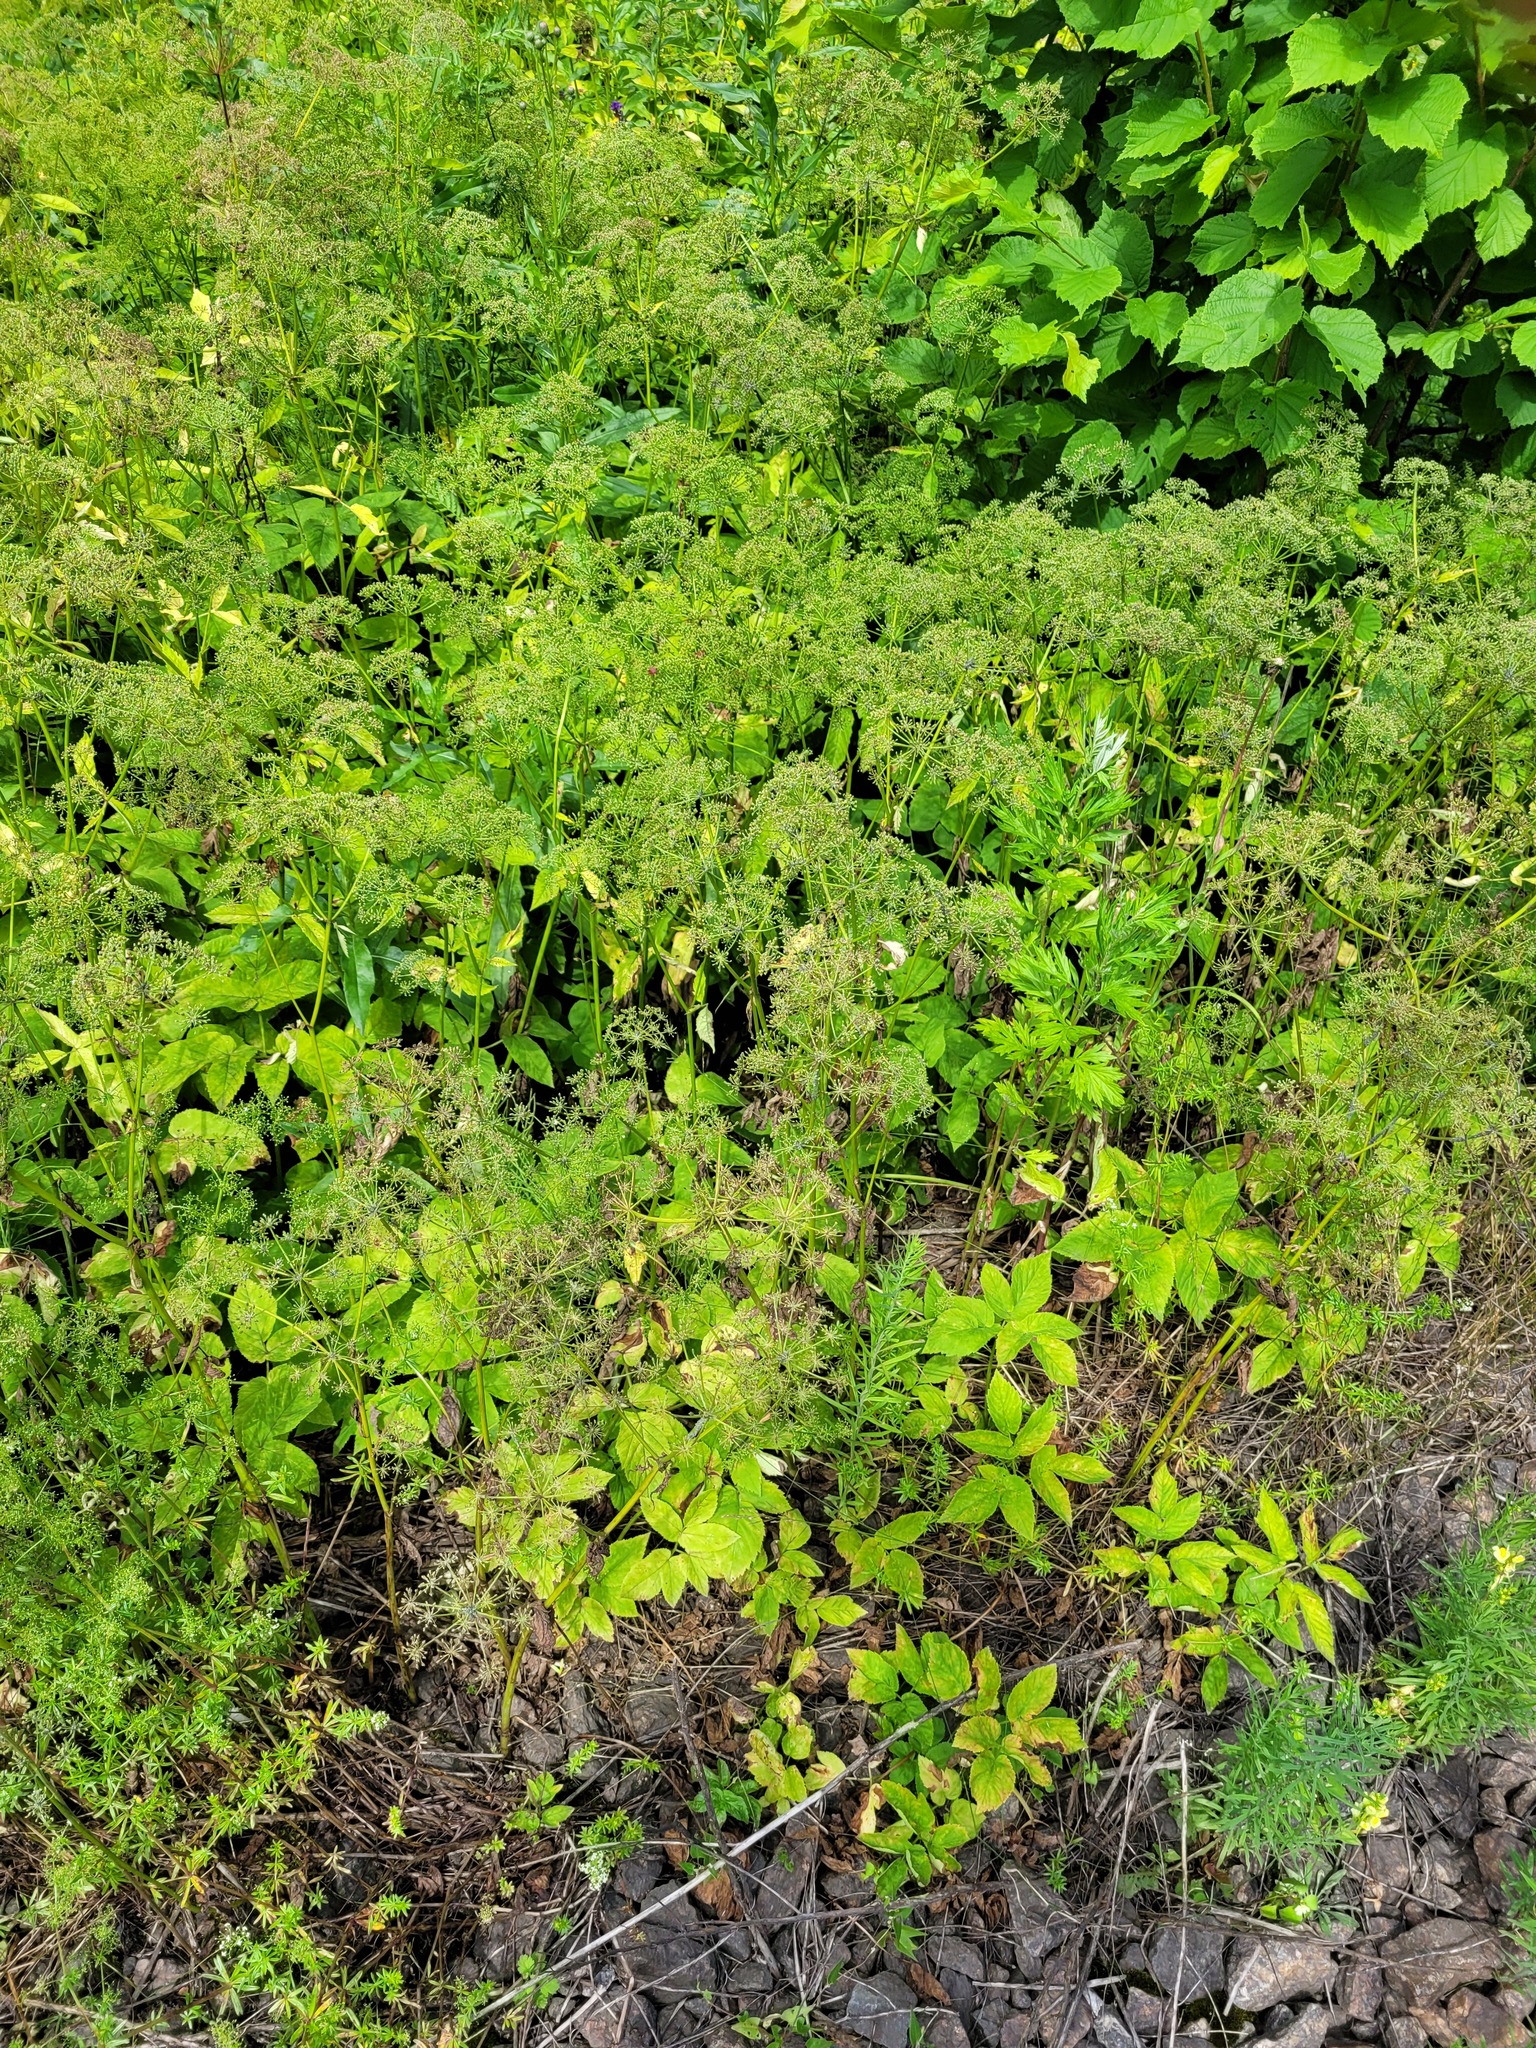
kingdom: Plantae
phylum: Tracheophyta
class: Magnoliopsida
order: Apiales
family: Apiaceae
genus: Aegopodium
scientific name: Aegopodium podagraria
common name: Ground-elder
